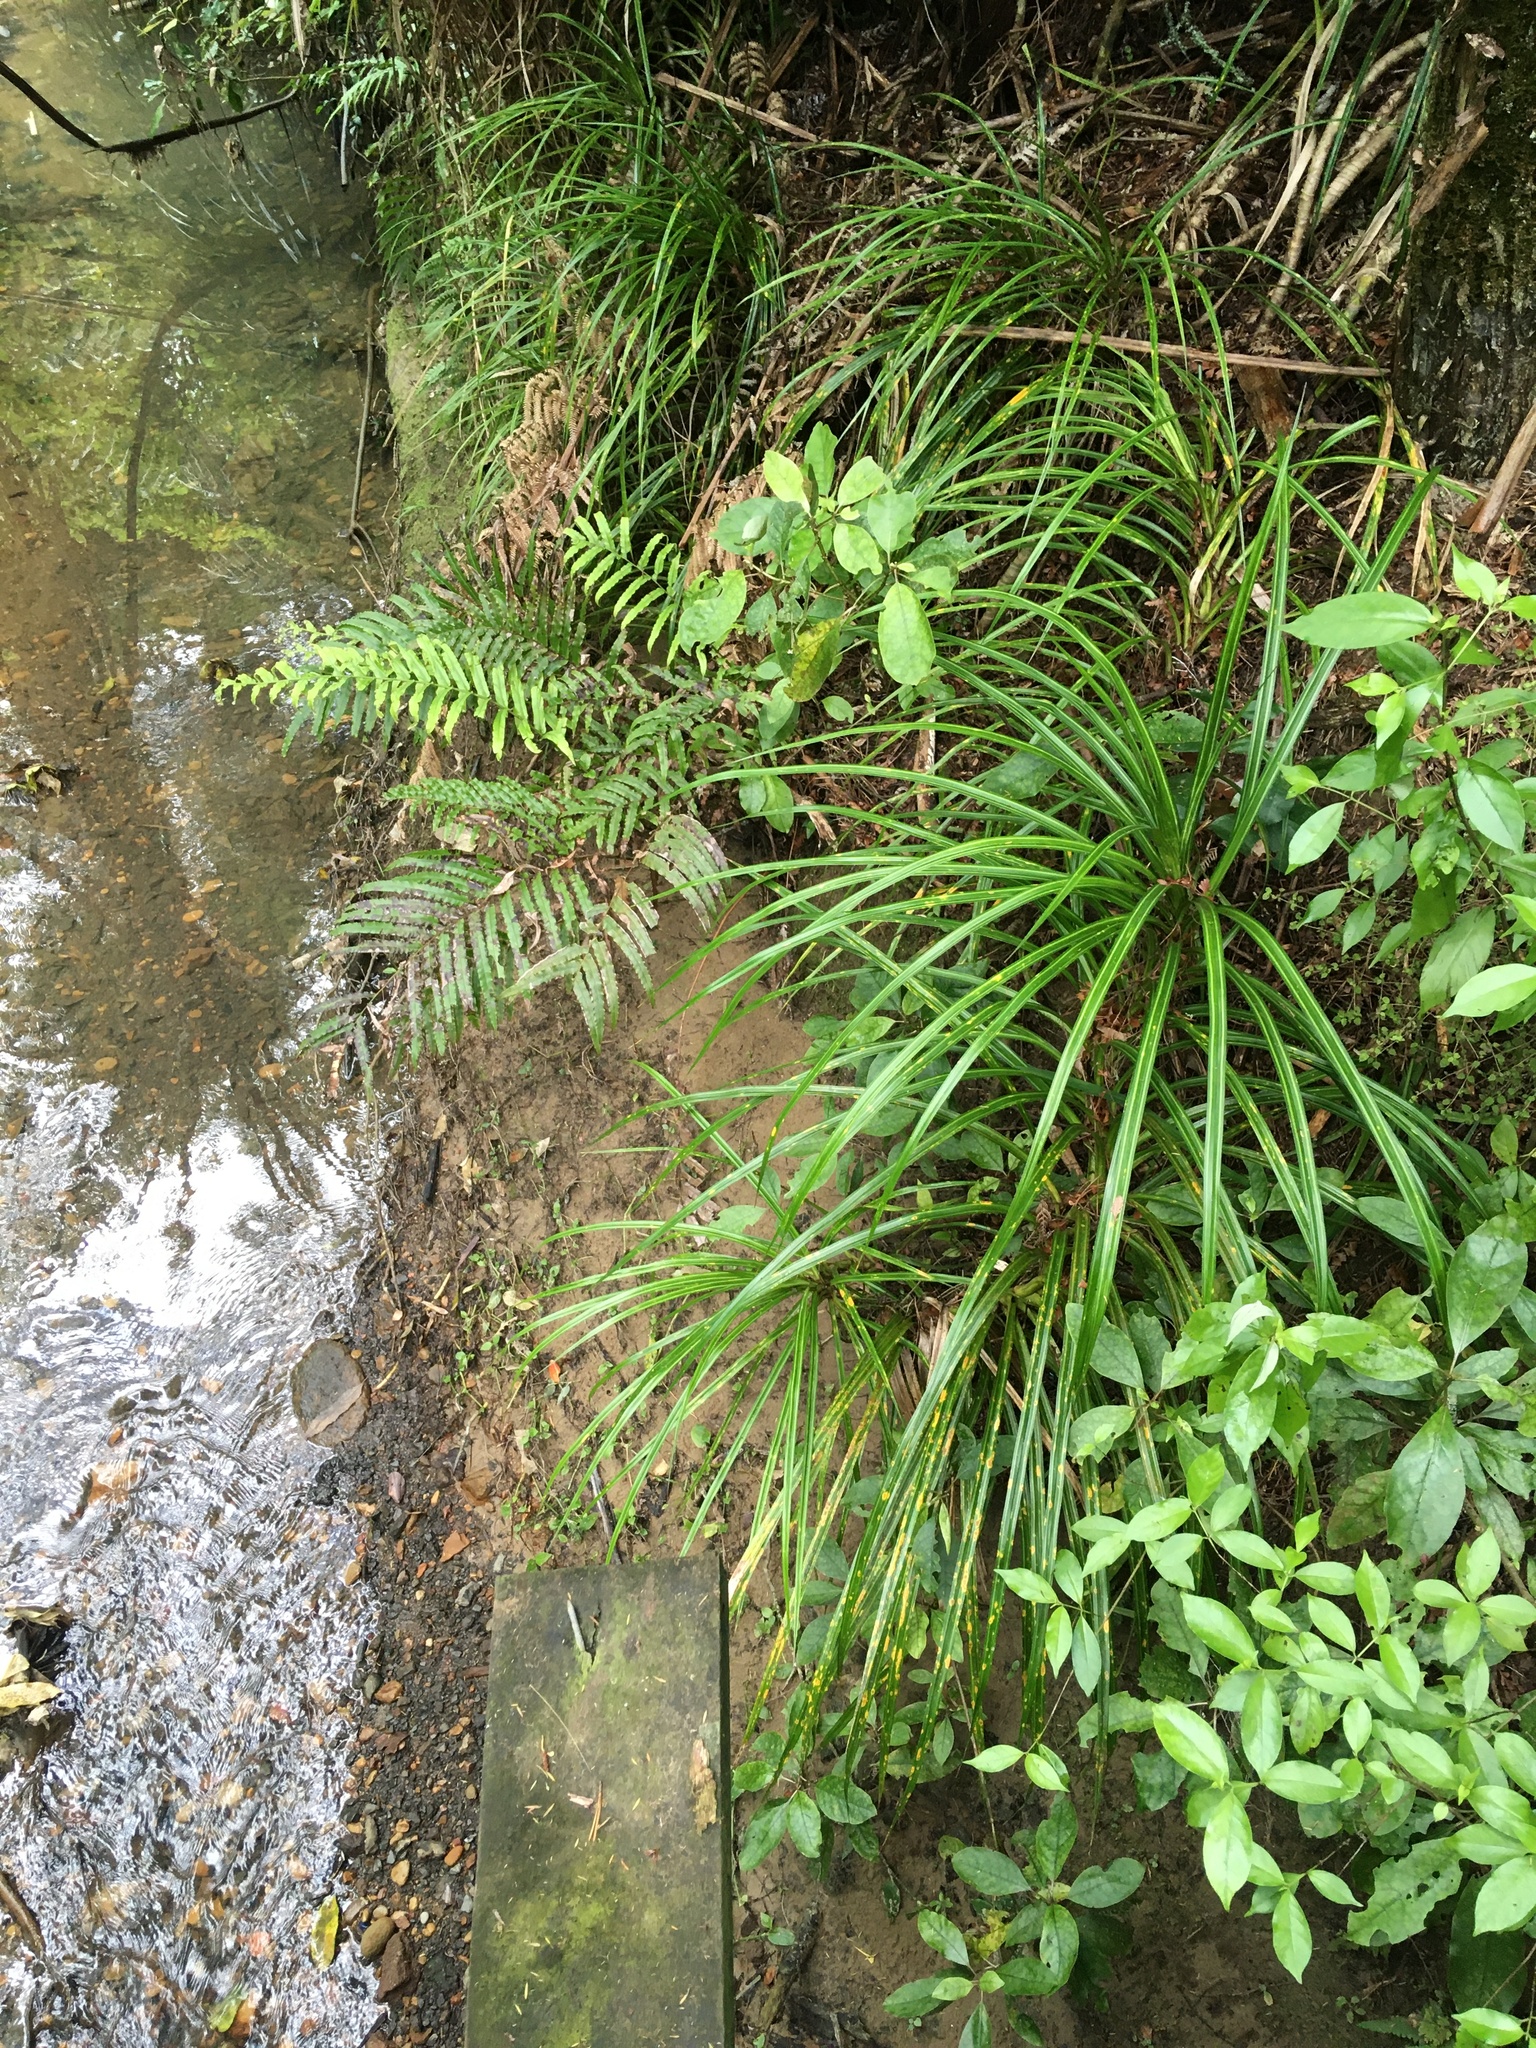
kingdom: Plantae
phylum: Tracheophyta
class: Liliopsida
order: Pandanales
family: Pandanaceae
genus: Freycinetia
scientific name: Freycinetia banksii
